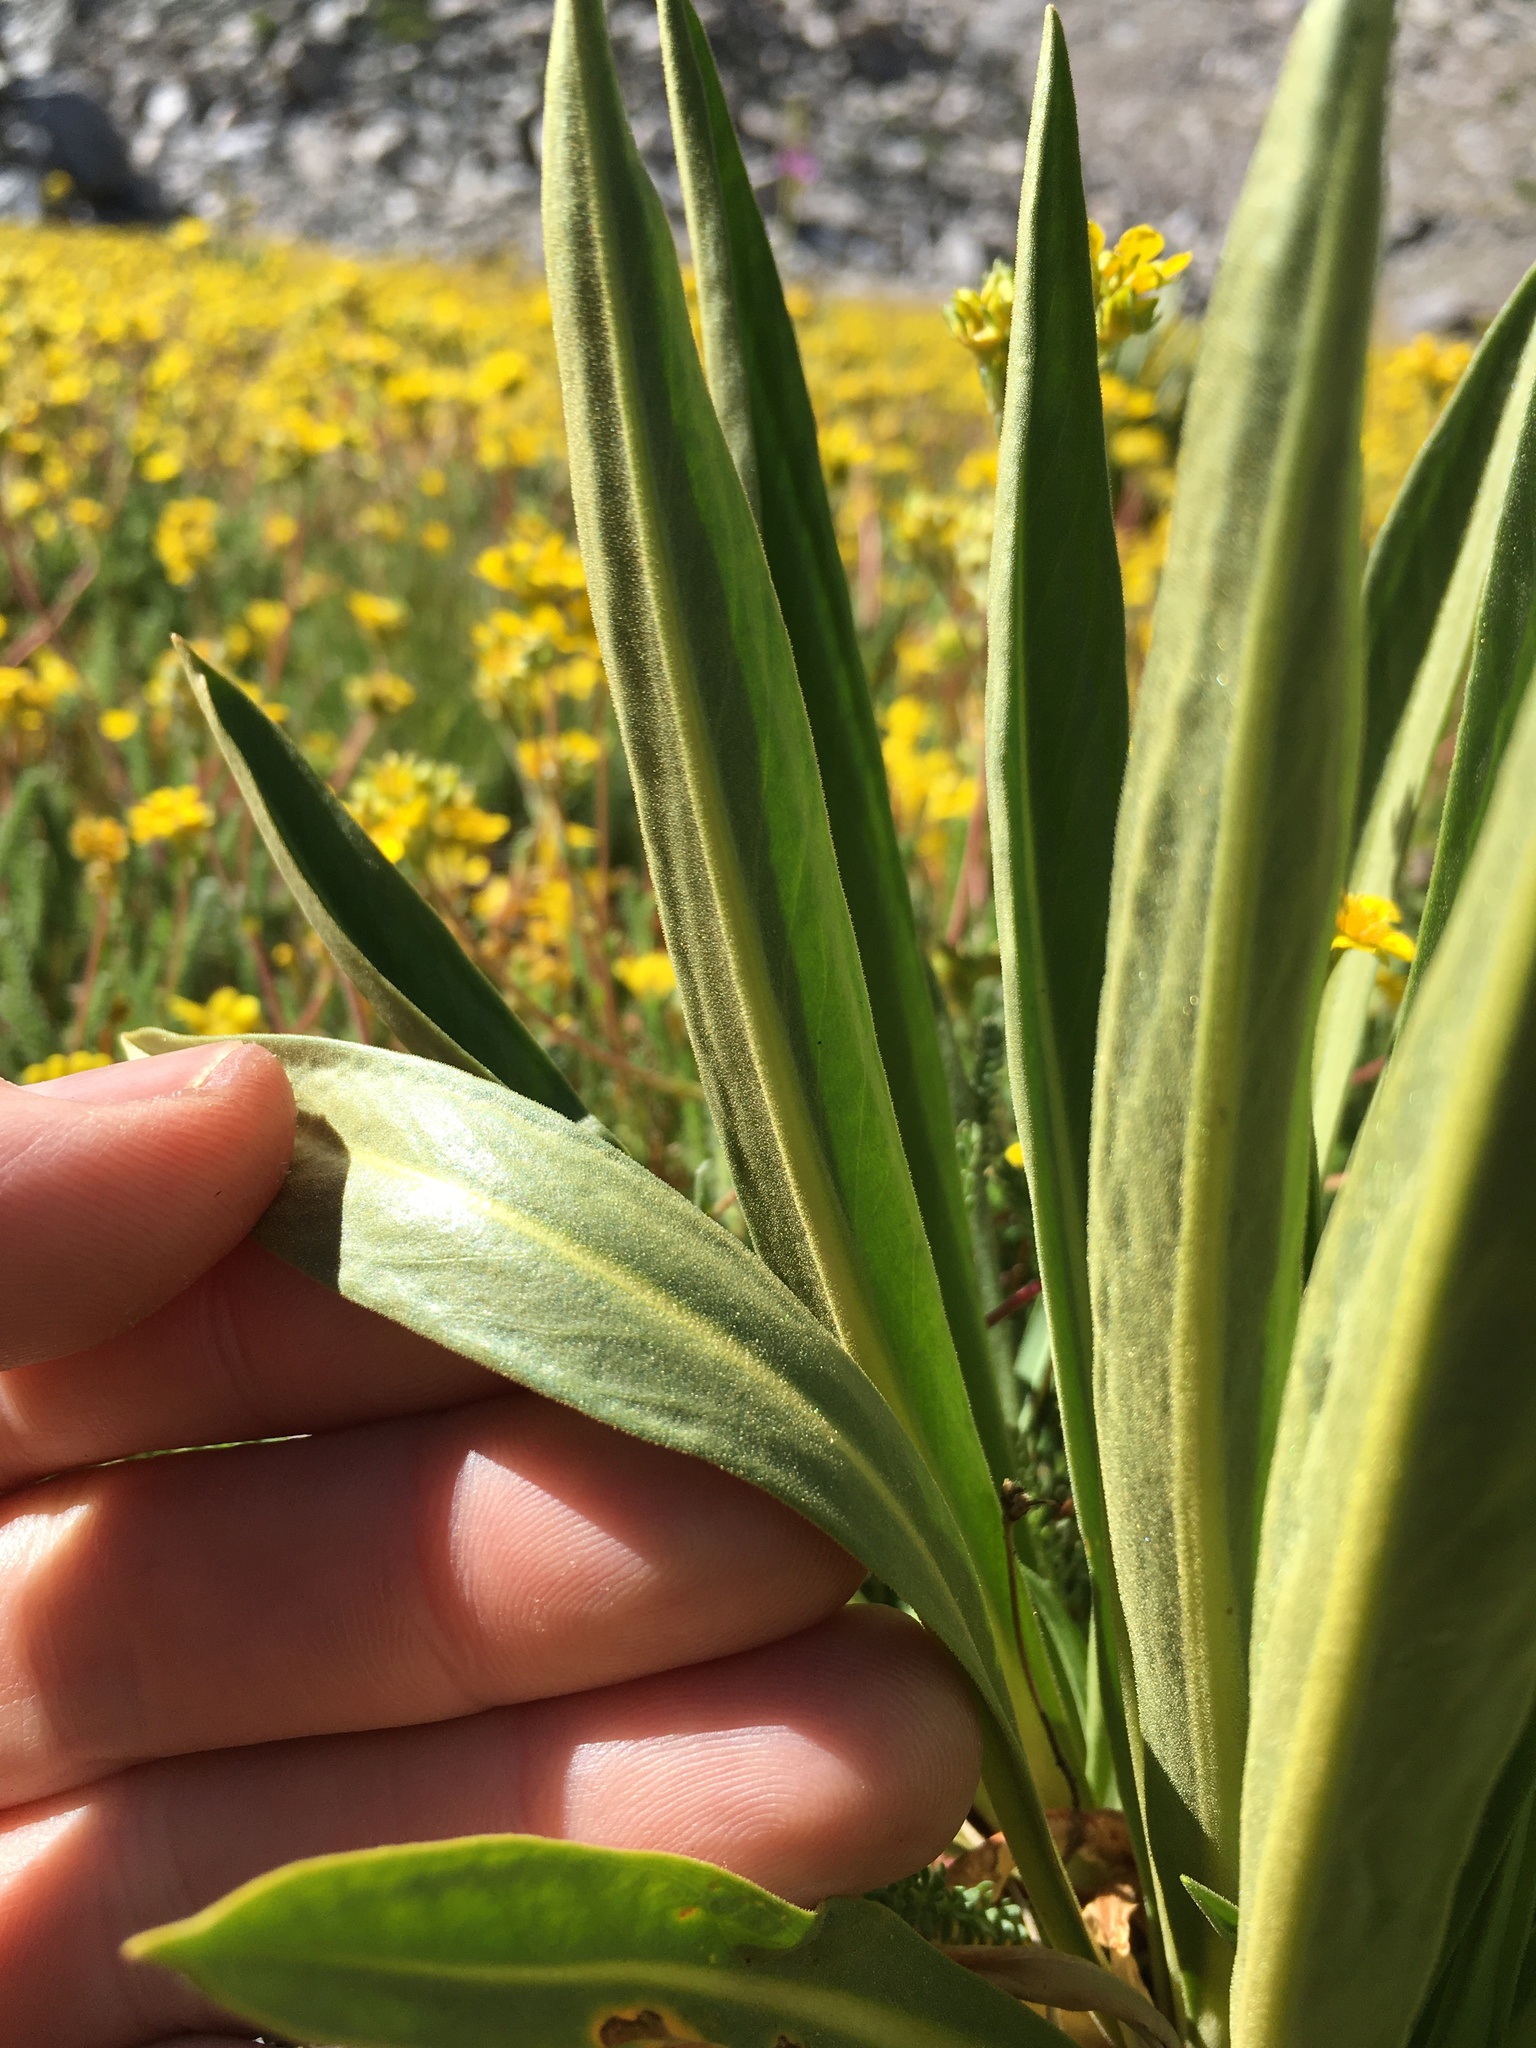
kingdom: Plantae
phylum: Tracheophyta
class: Magnoliopsida
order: Ericales
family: Primulaceae
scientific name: Primulaceae
